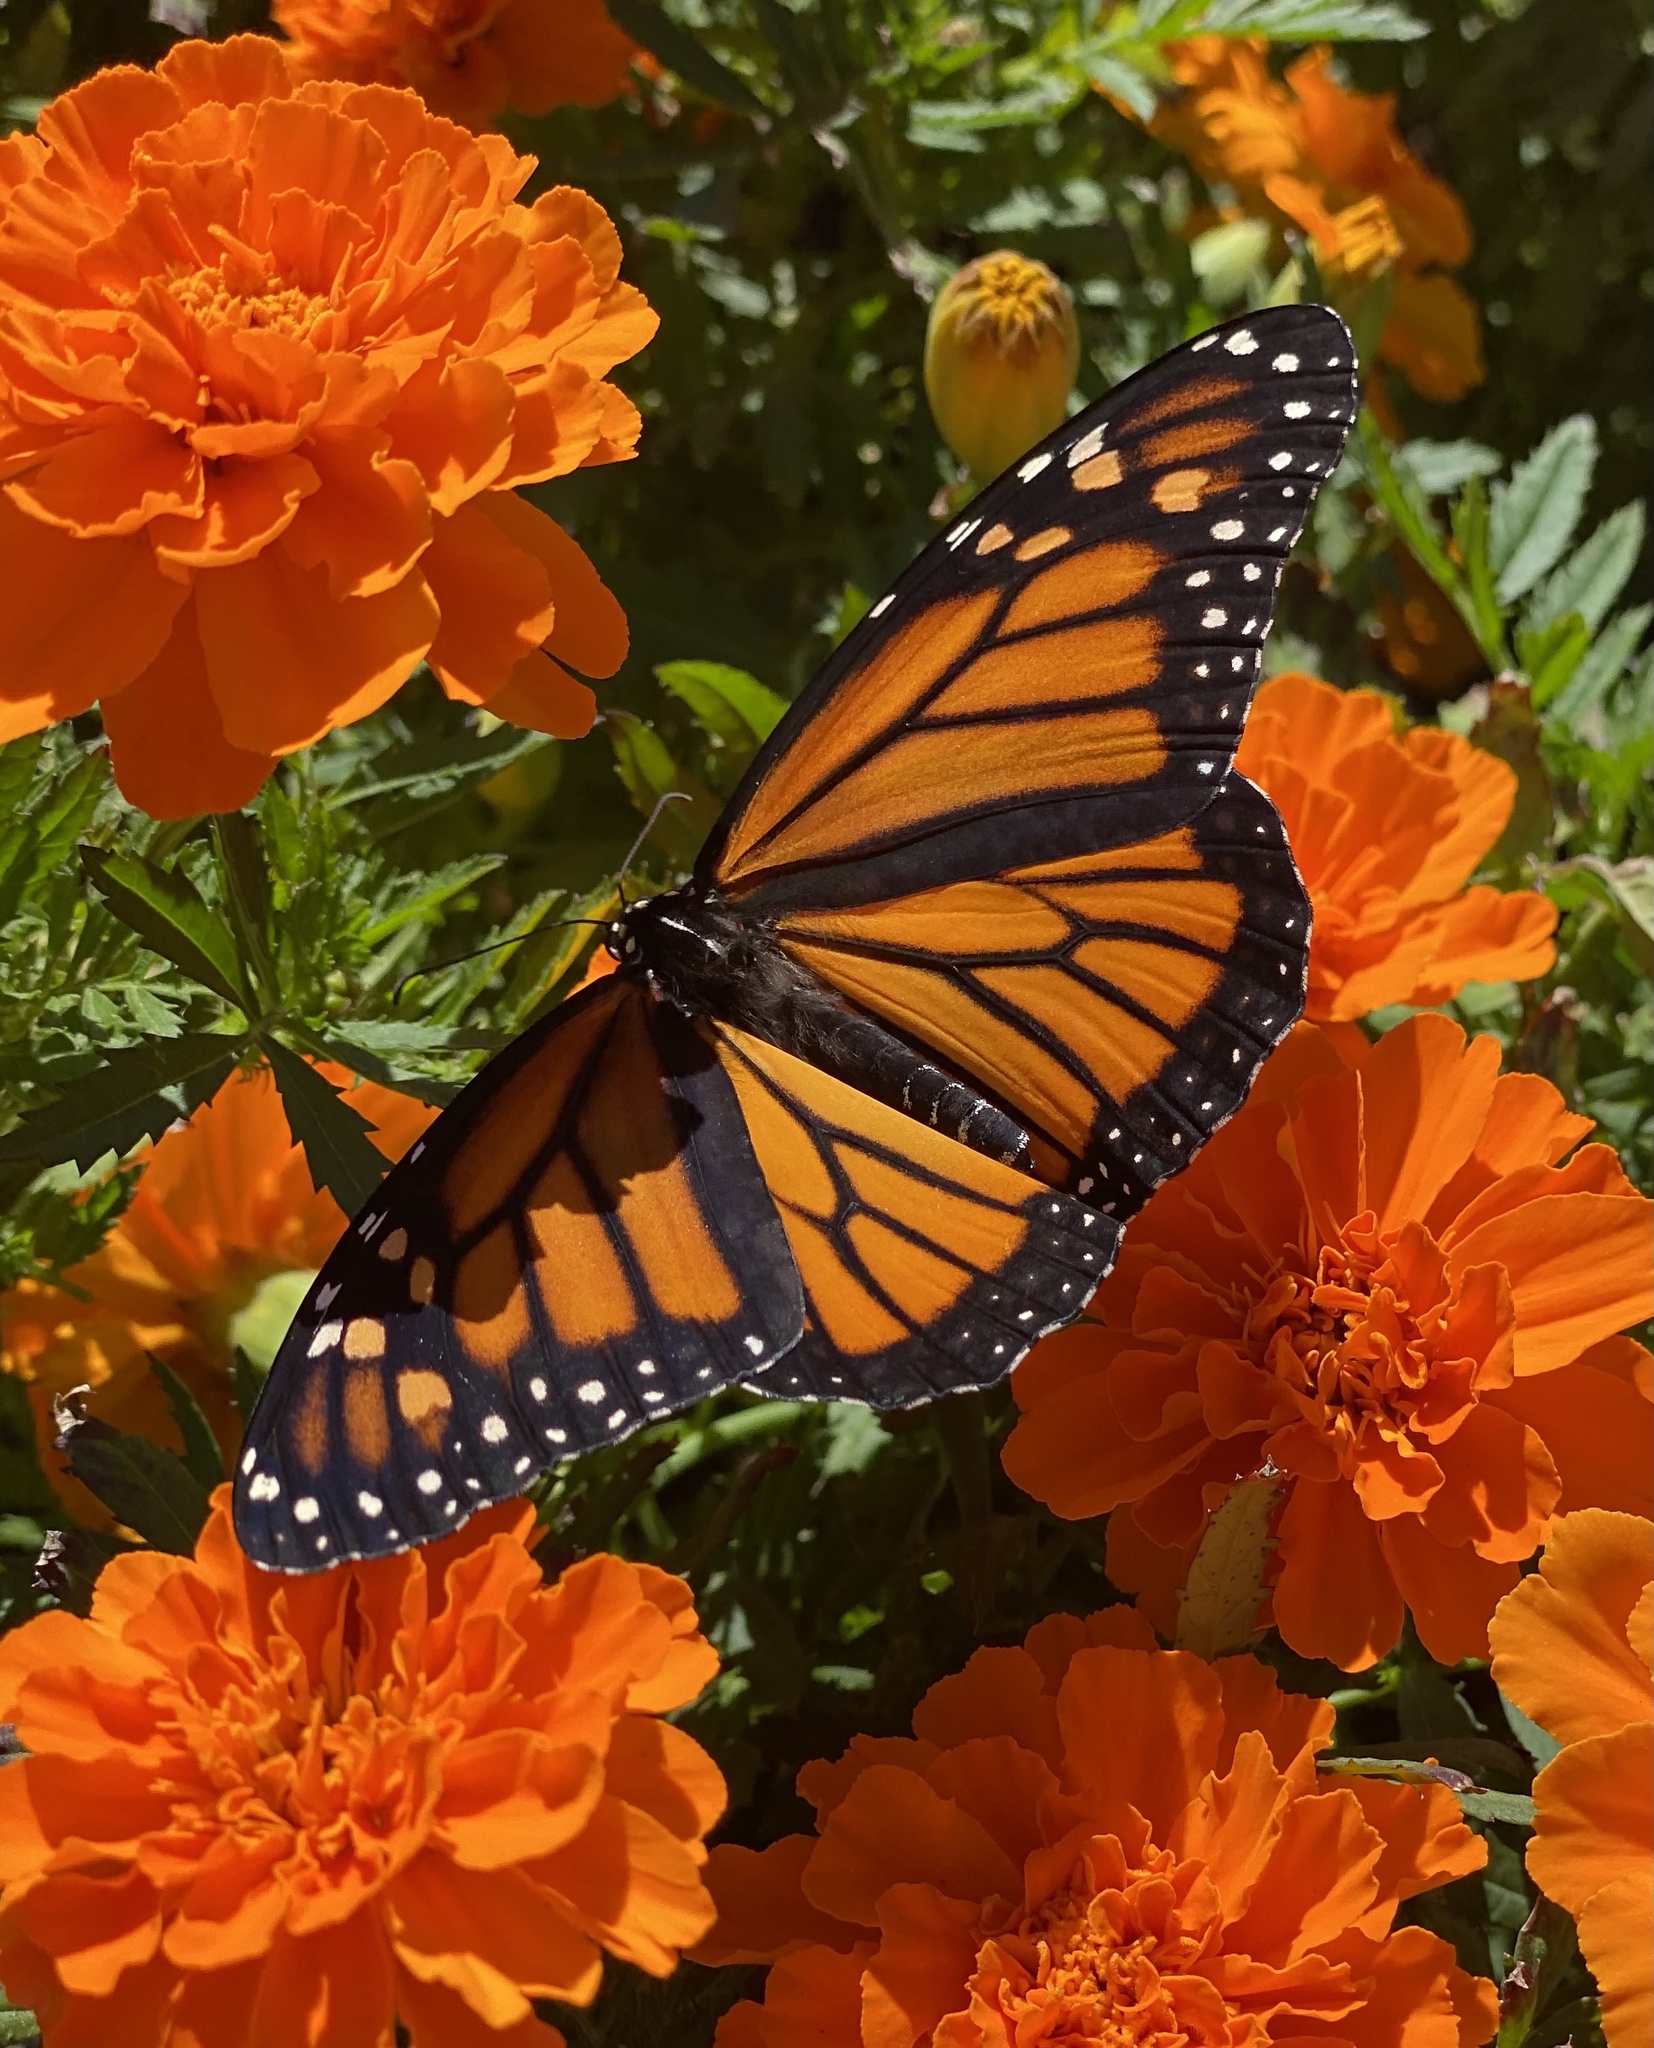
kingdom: Animalia
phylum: Arthropoda
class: Insecta
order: Lepidoptera
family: Nymphalidae
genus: Danaus
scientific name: Danaus plexippus
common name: Monarch
